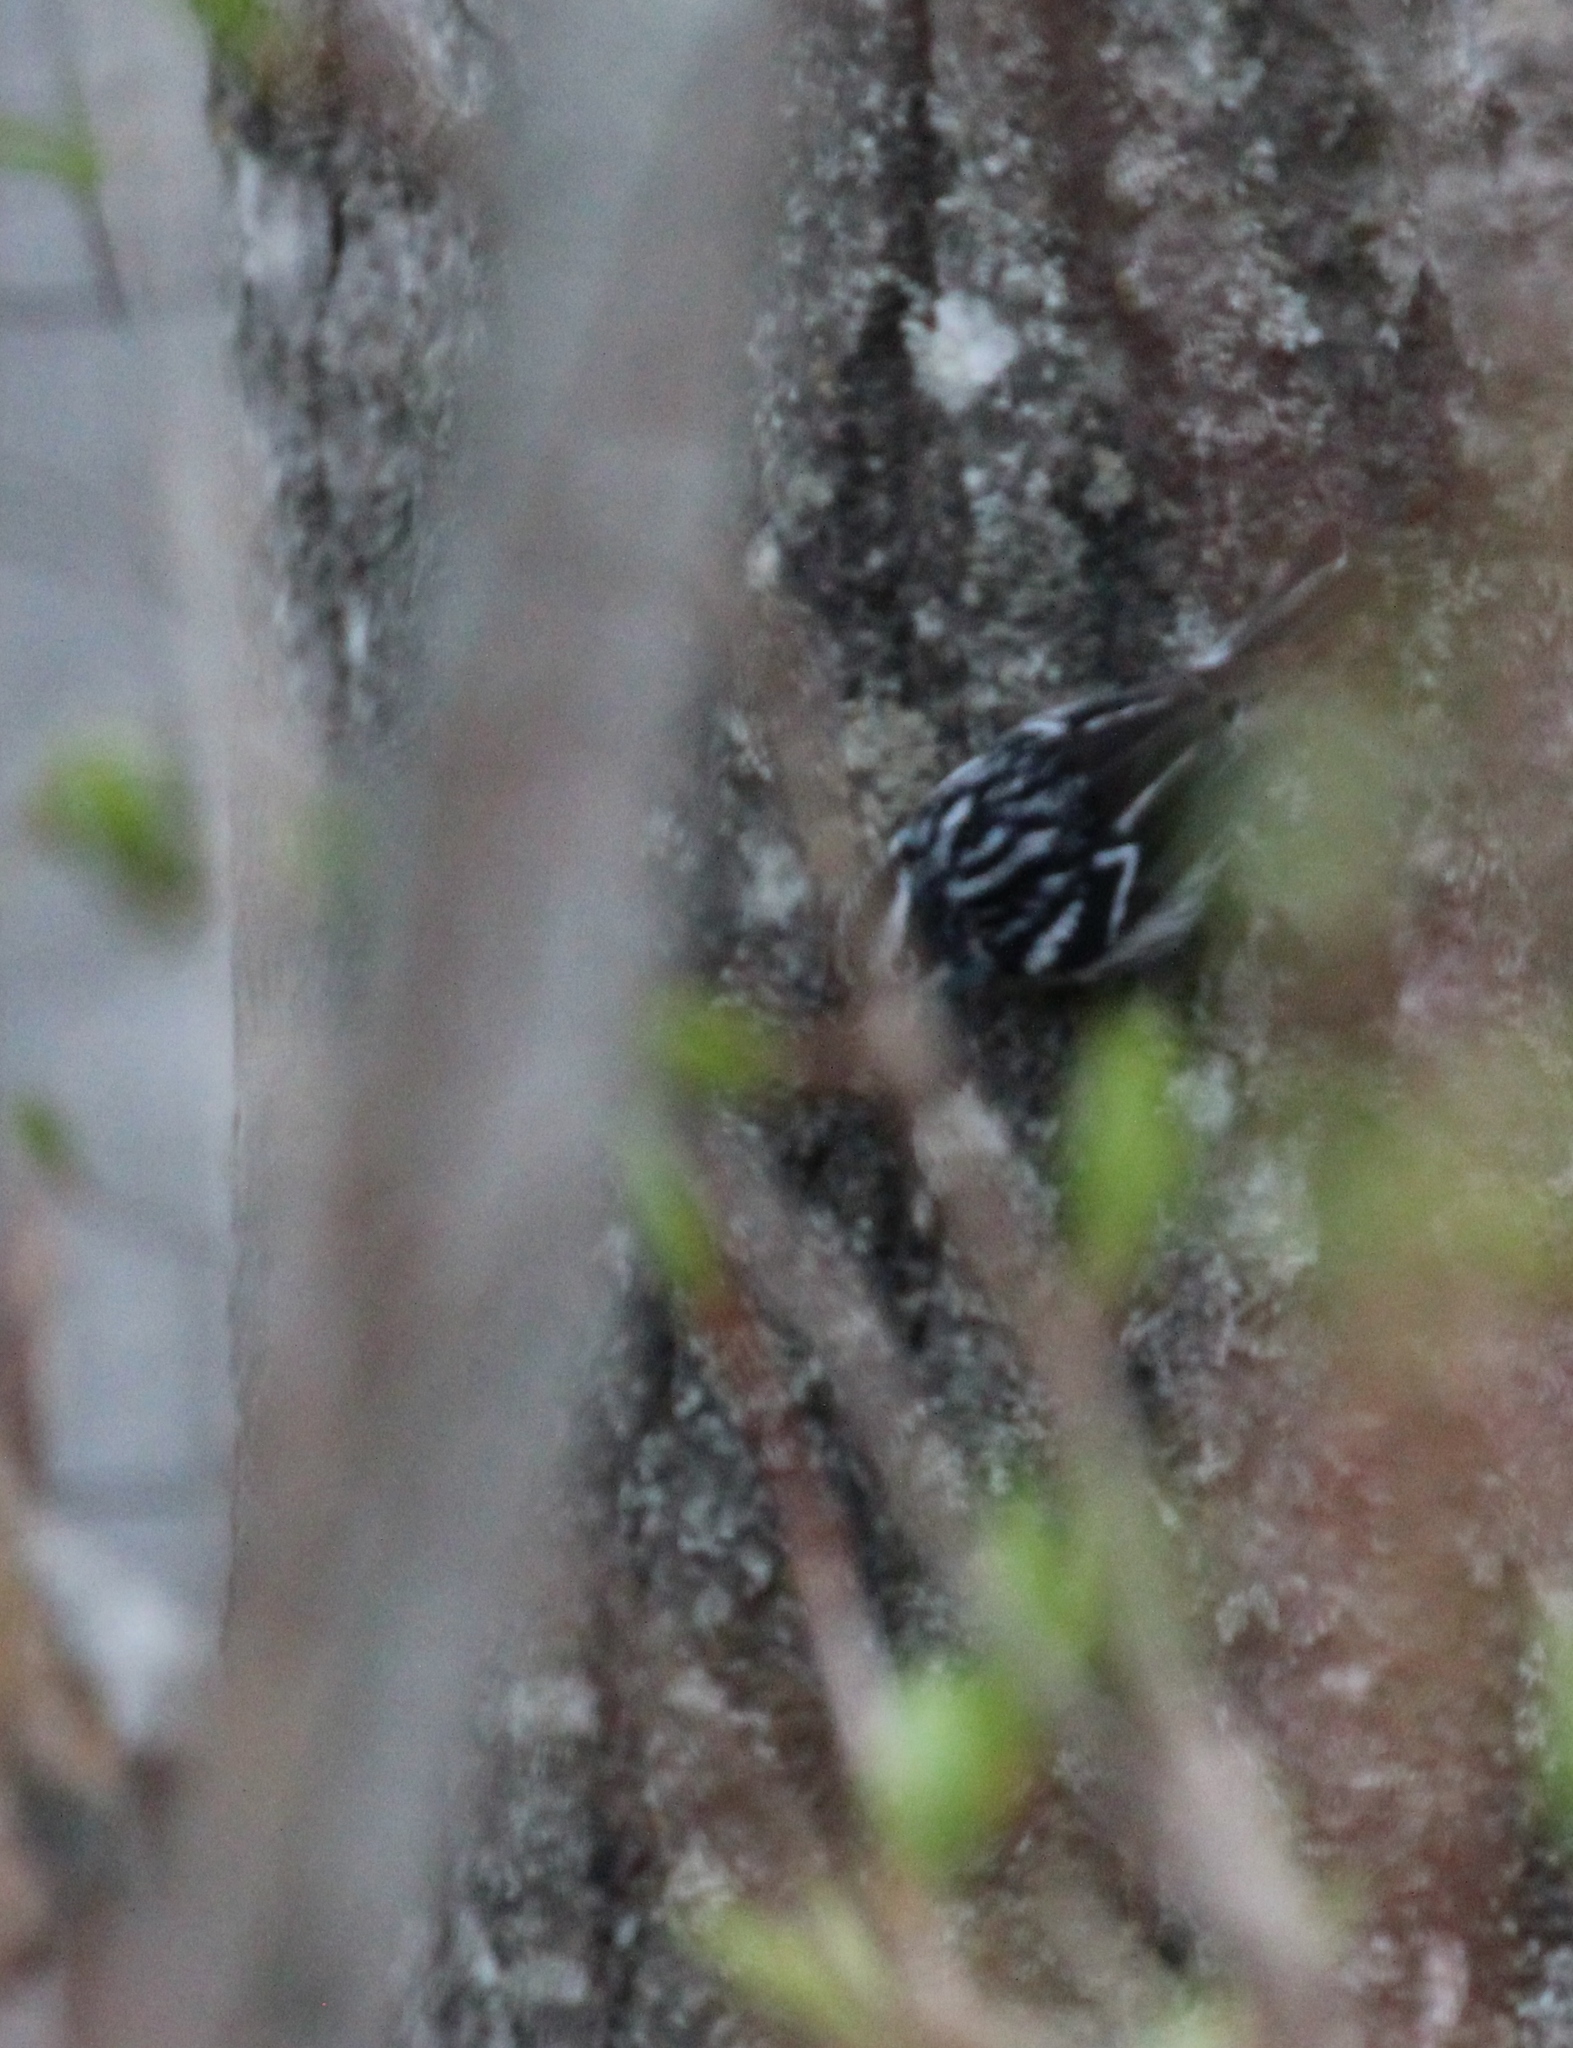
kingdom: Animalia
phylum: Chordata
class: Aves
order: Passeriformes
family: Parulidae
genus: Mniotilta
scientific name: Mniotilta varia
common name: Black-and-white warbler
